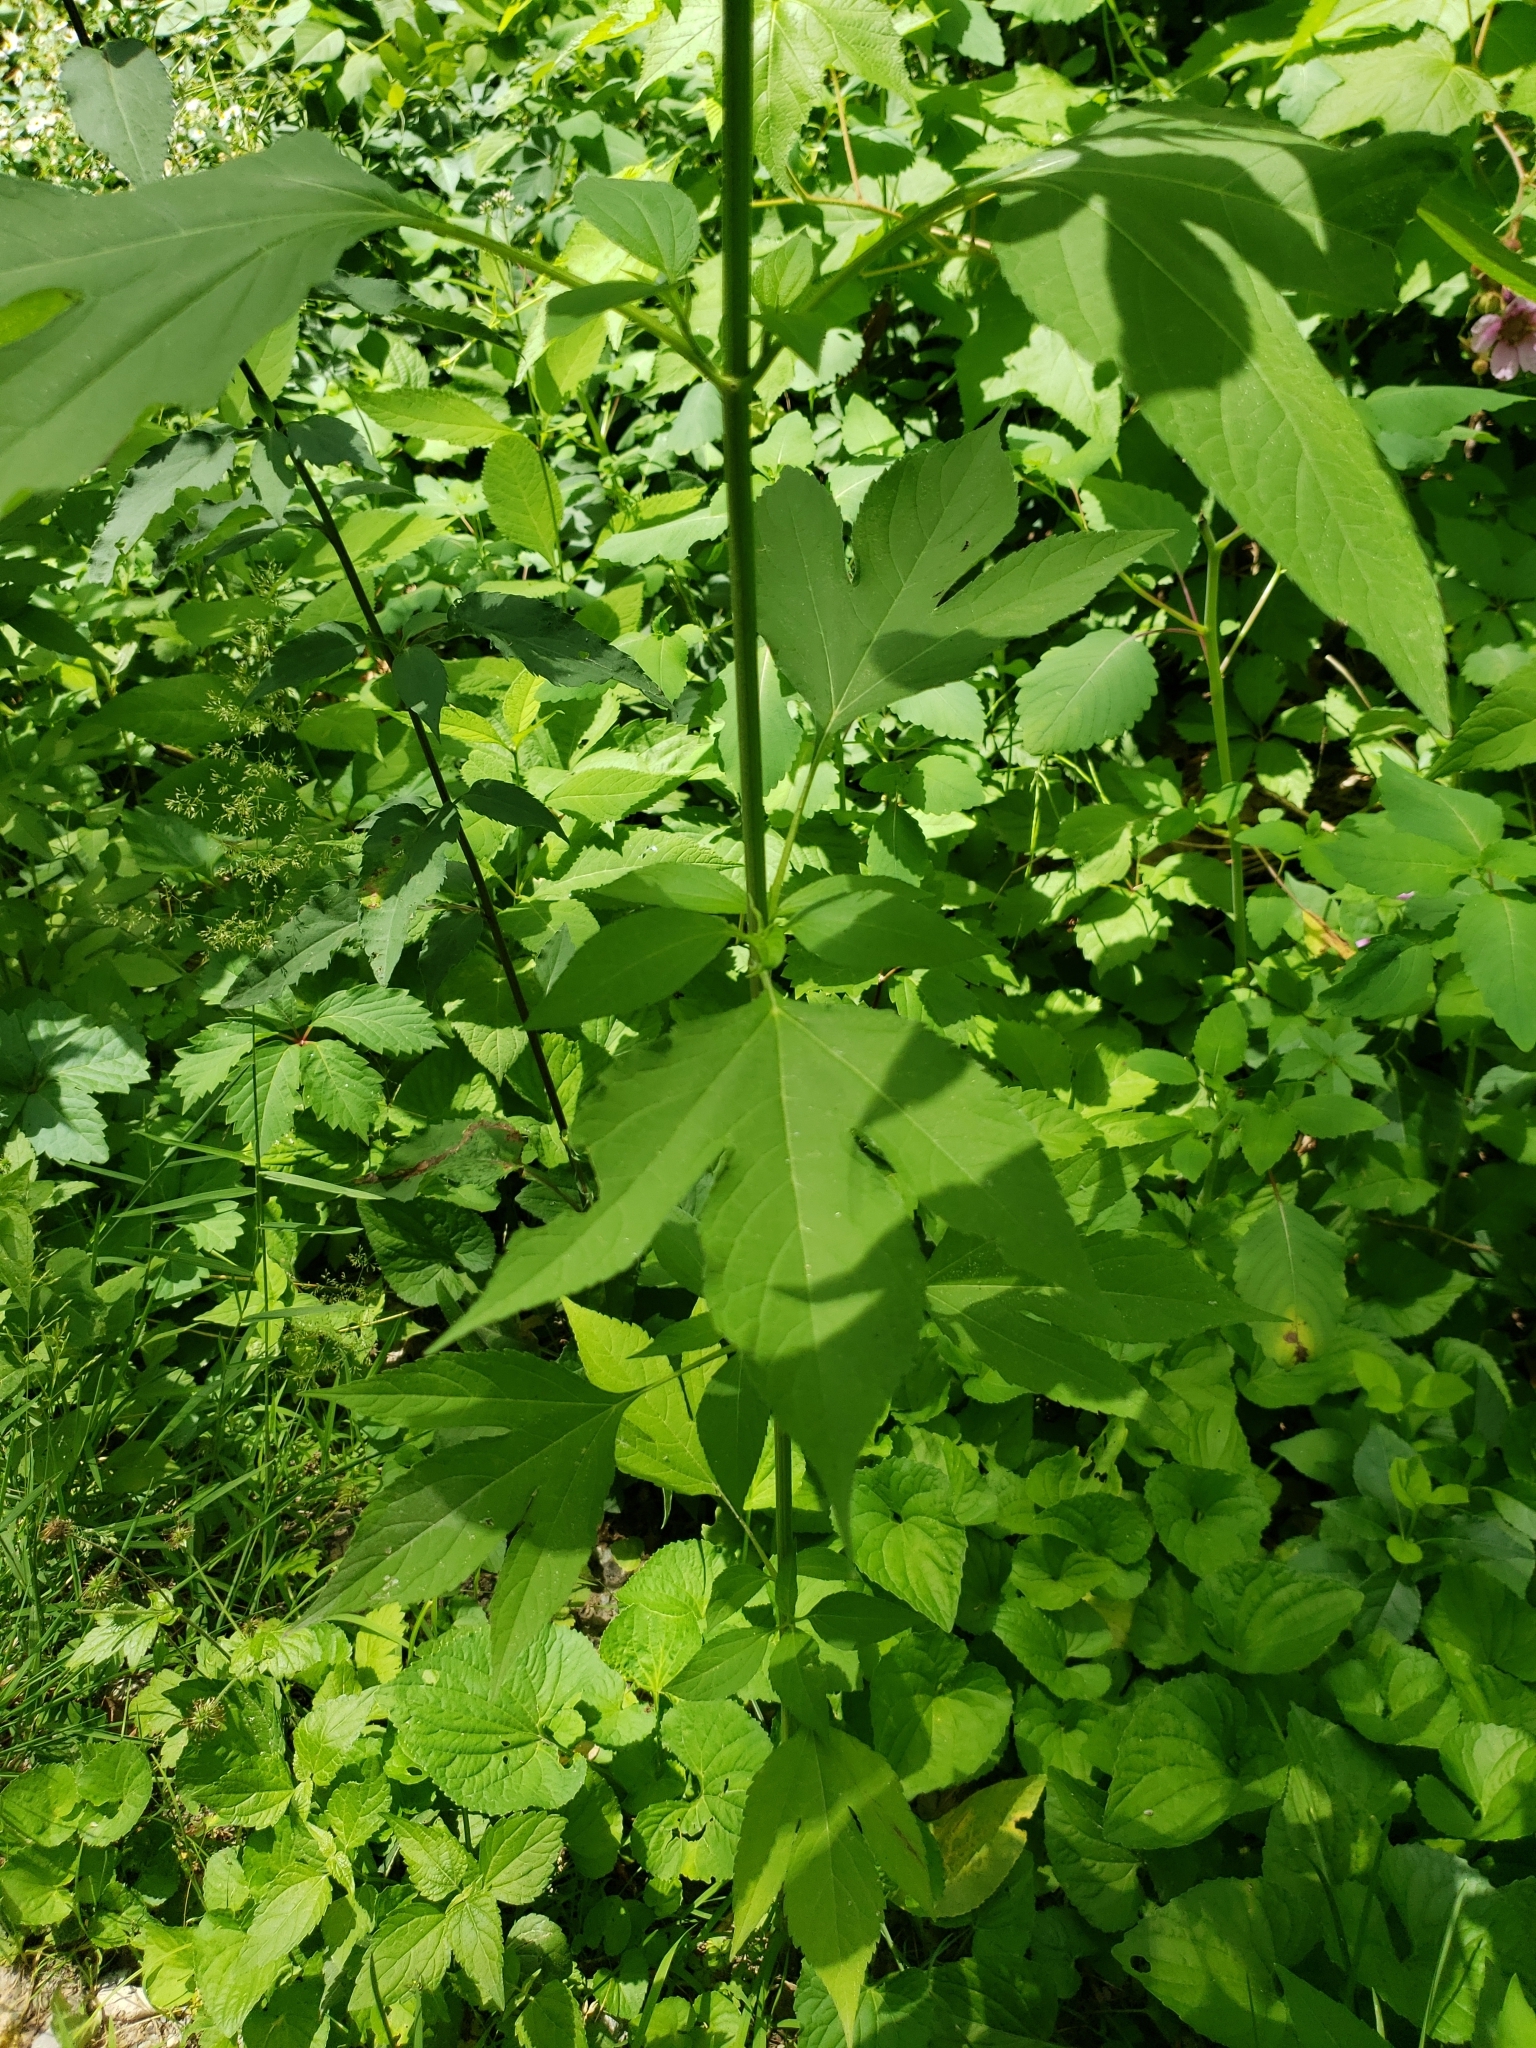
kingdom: Plantae
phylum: Tracheophyta
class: Magnoliopsida
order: Asterales
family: Asteraceae
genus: Ambrosia
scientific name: Ambrosia trifida
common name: Giant ragweed
